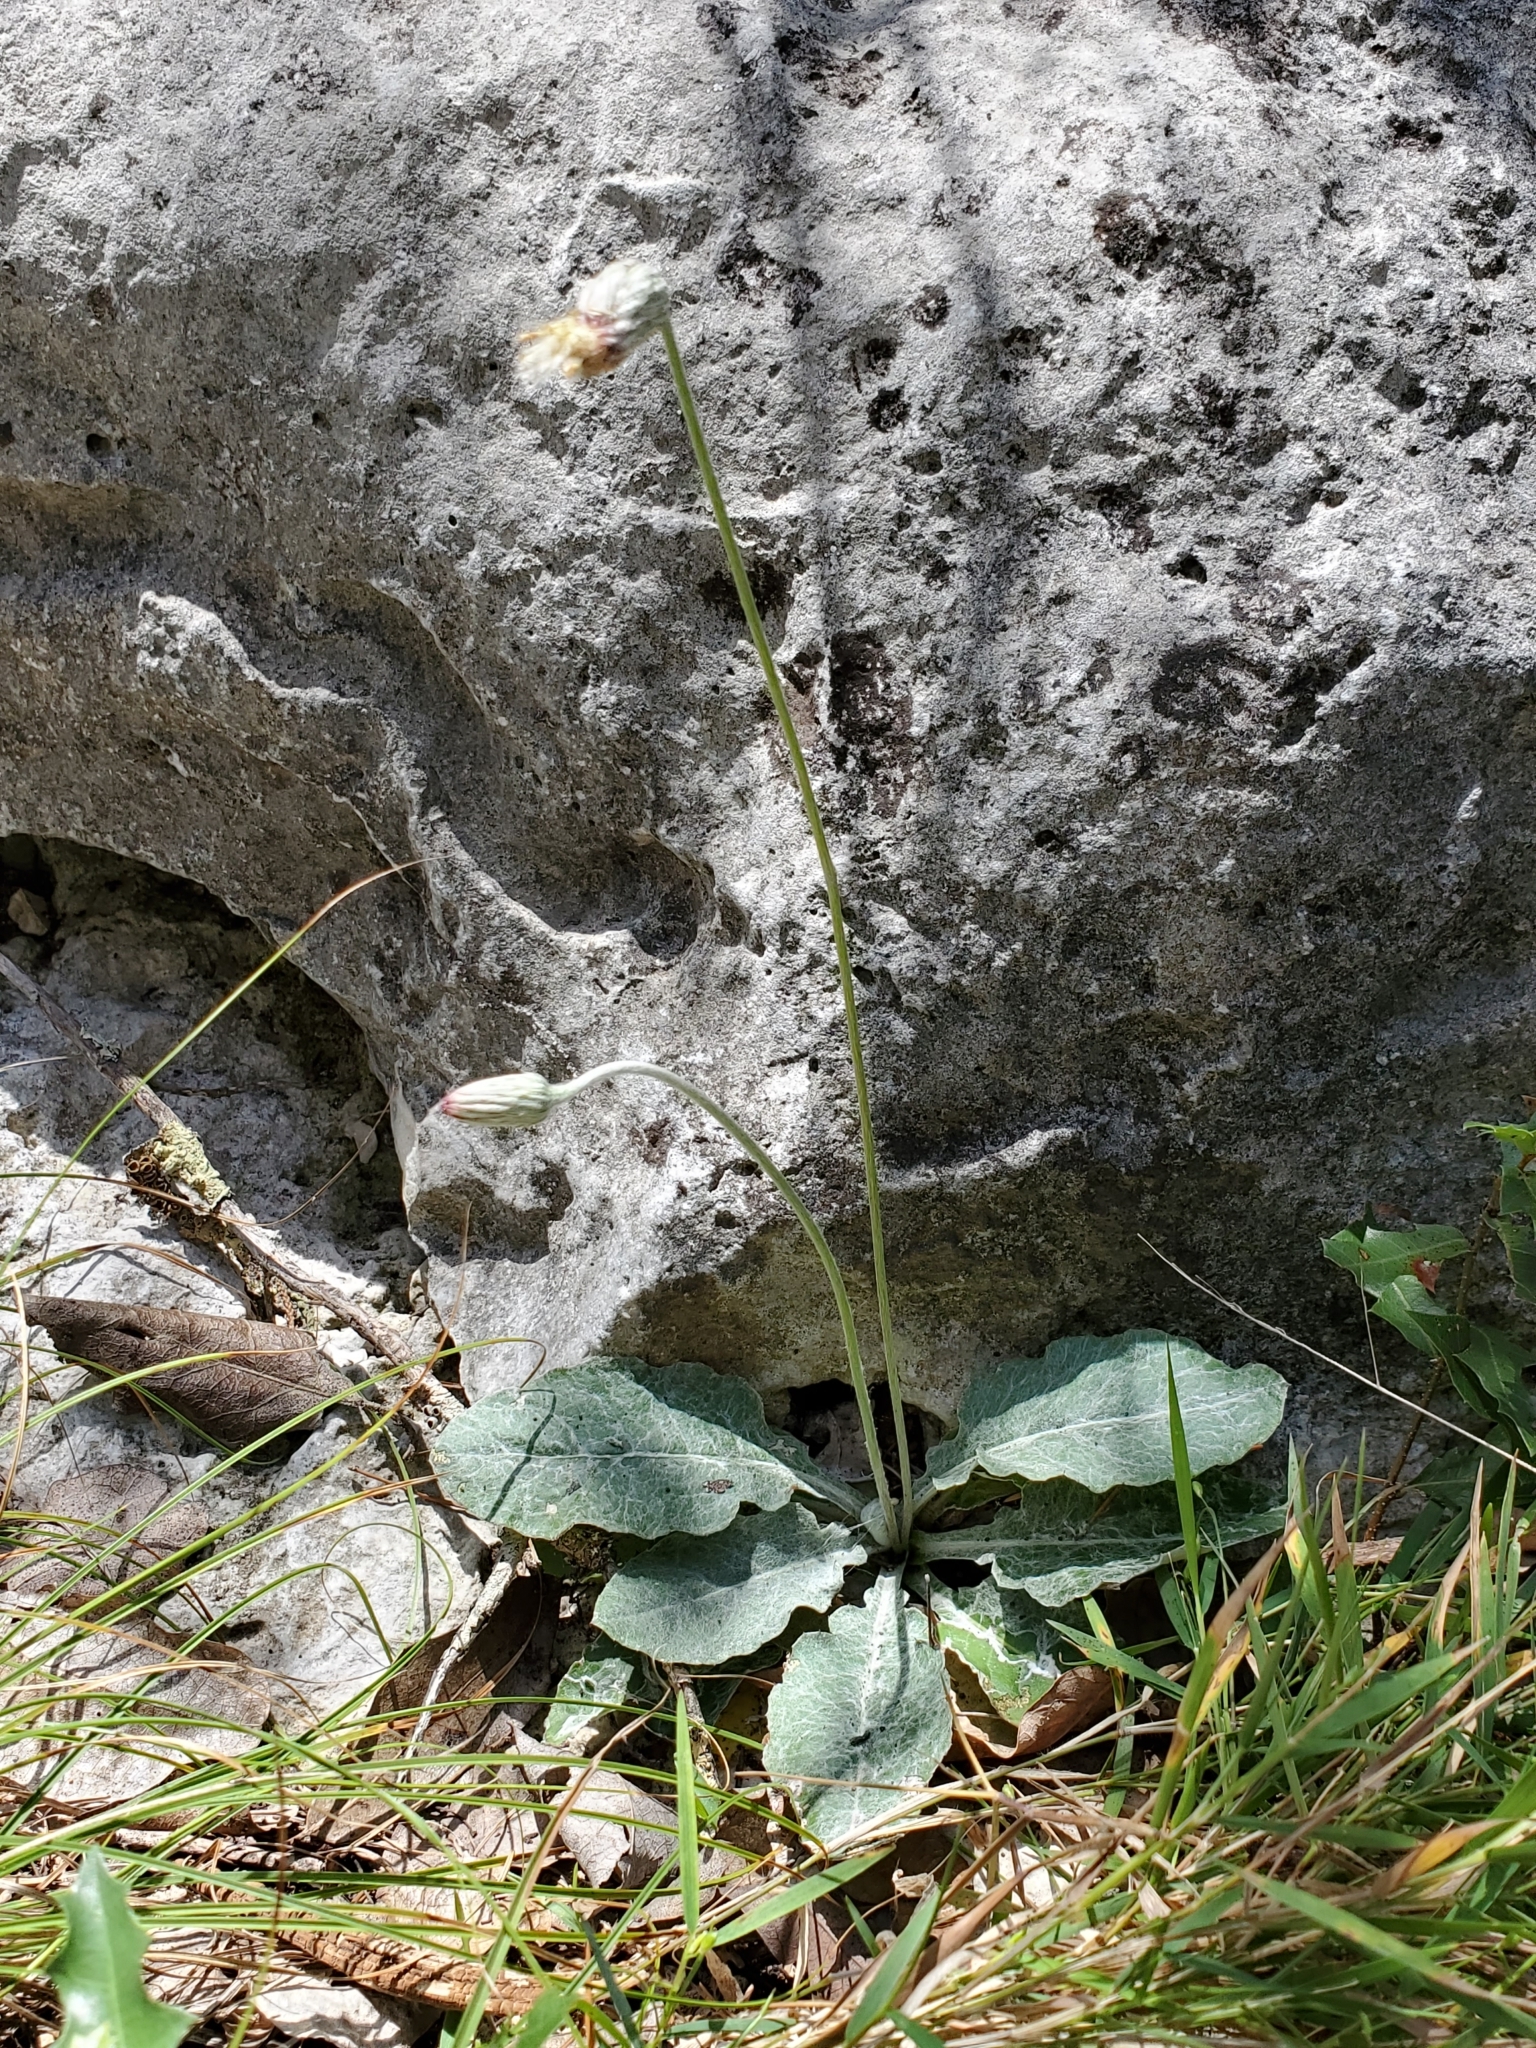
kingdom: Plantae
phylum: Tracheophyta
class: Magnoliopsida
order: Asterales
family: Asteraceae
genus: Chaptalia
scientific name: Chaptalia texana
